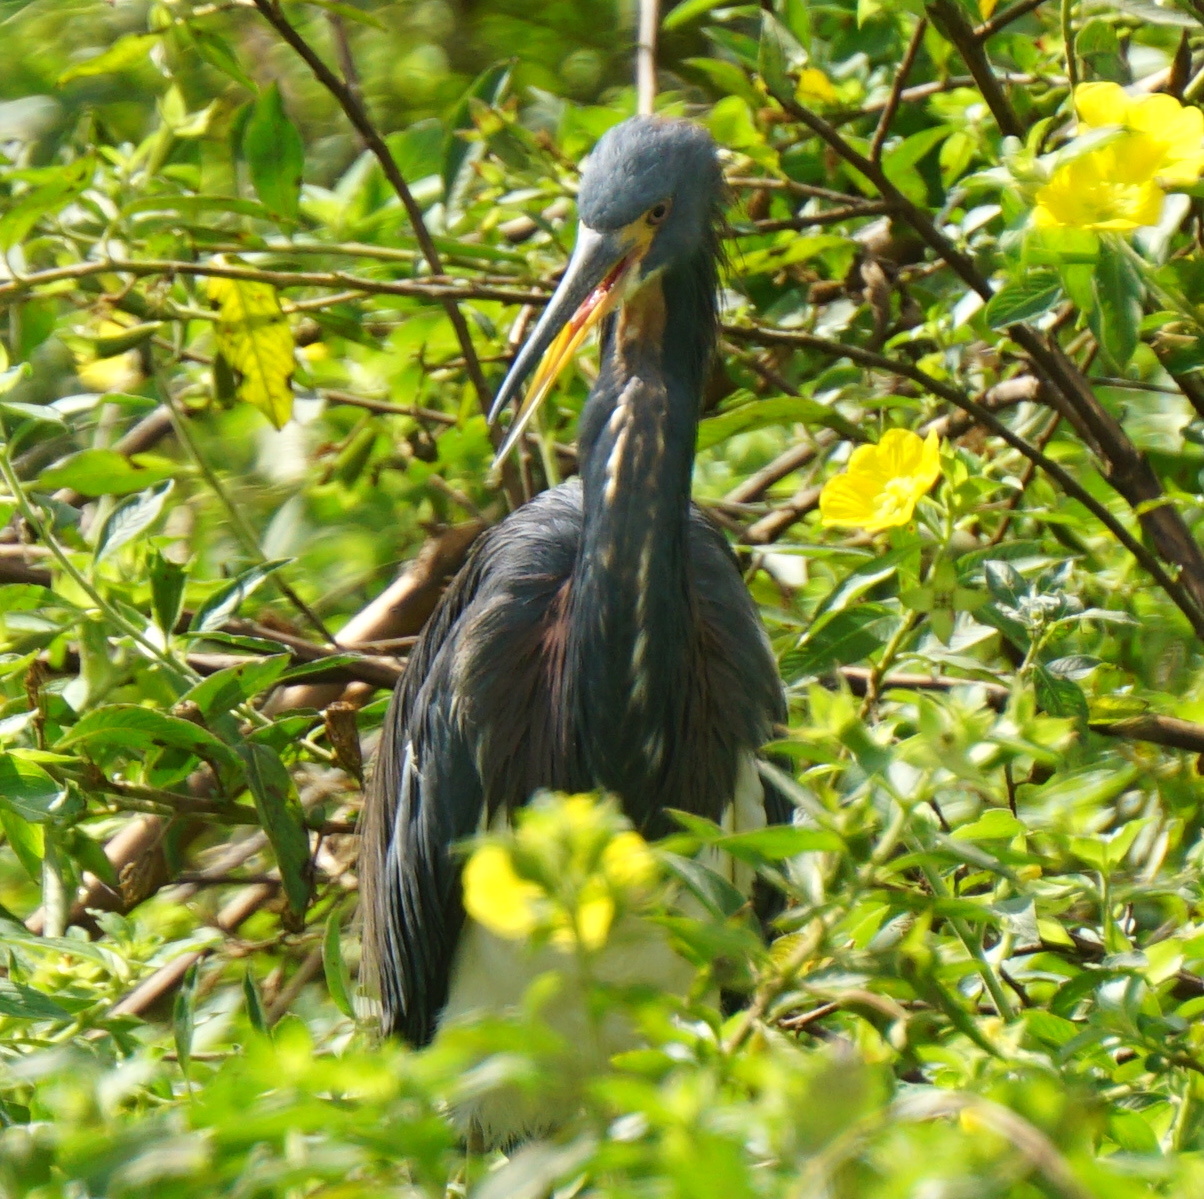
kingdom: Animalia
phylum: Chordata
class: Aves
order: Pelecaniformes
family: Ardeidae
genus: Egretta
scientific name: Egretta tricolor
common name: Tricolored heron
